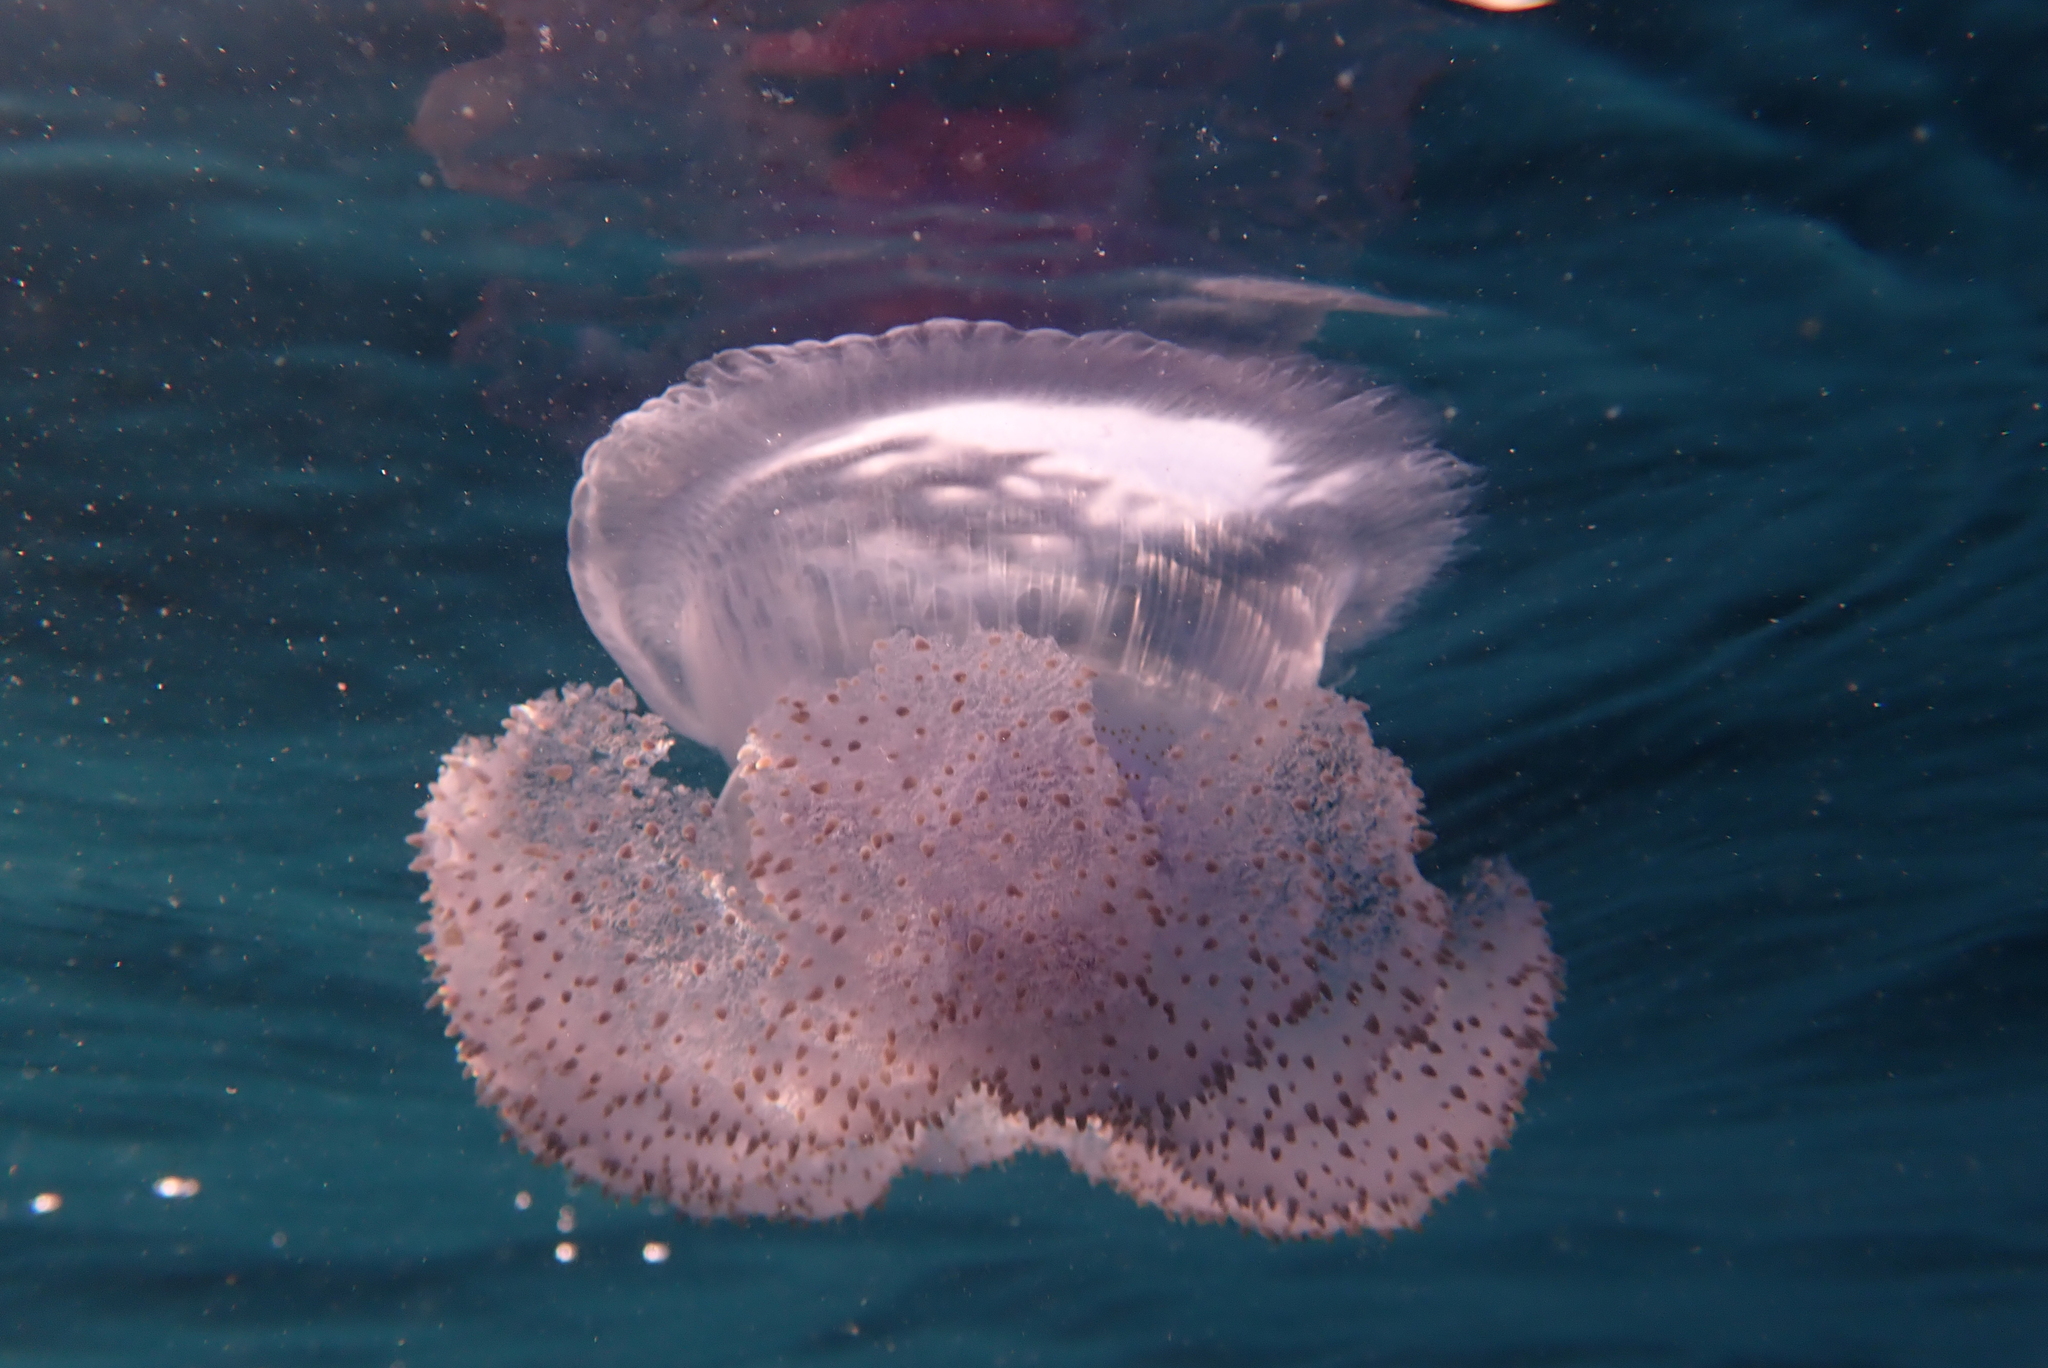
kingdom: Animalia
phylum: Cnidaria
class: Scyphozoa
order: Rhizostomeae
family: Cepheidae
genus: Marivagia
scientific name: Marivagia stellata
